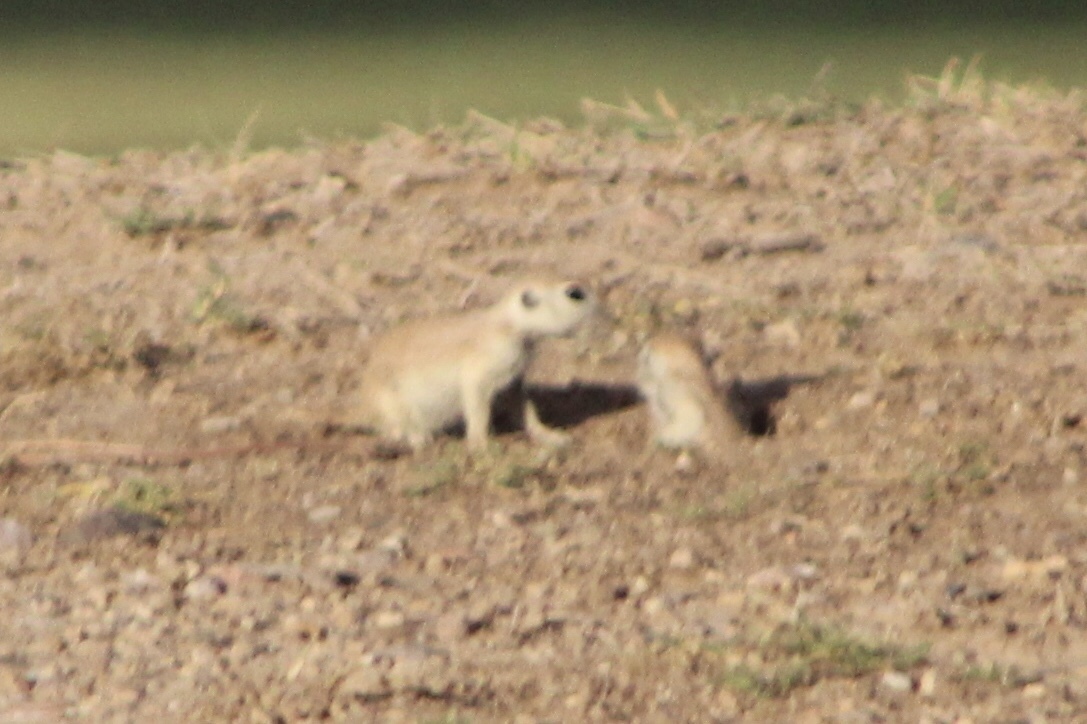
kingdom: Animalia
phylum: Chordata
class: Mammalia
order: Rodentia
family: Sciuridae
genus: Xerospermophilus
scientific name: Xerospermophilus tereticaudus
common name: Round-tailed ground squirrel
